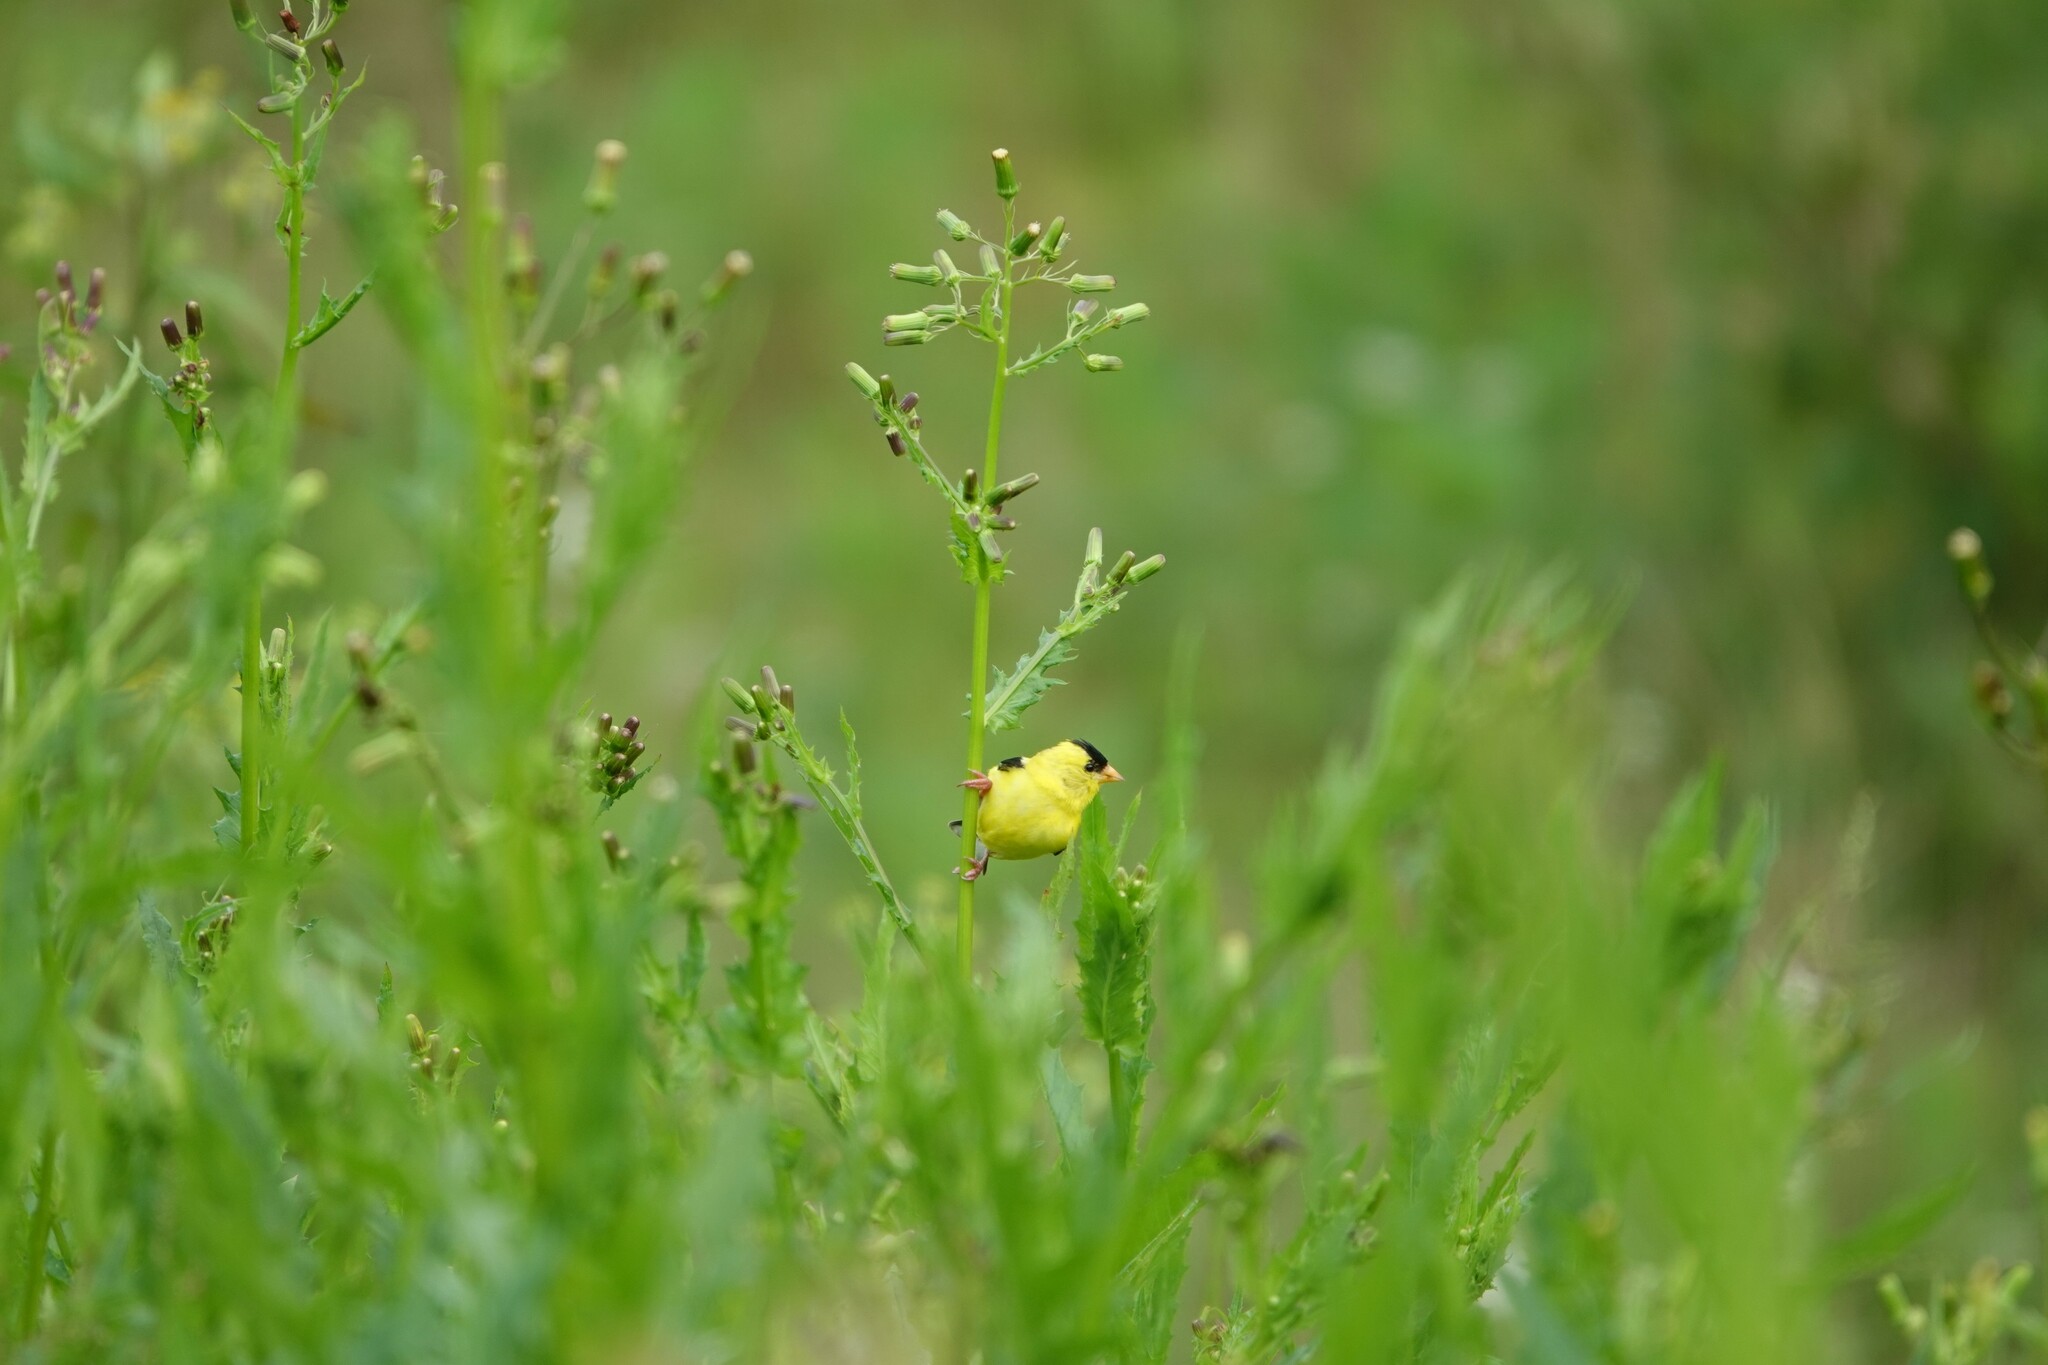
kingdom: Animalia
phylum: Chordata
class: Aves
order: Passeriformes
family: Fringillidae
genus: Spinus
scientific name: Spinus tristis
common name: American goldfinch
